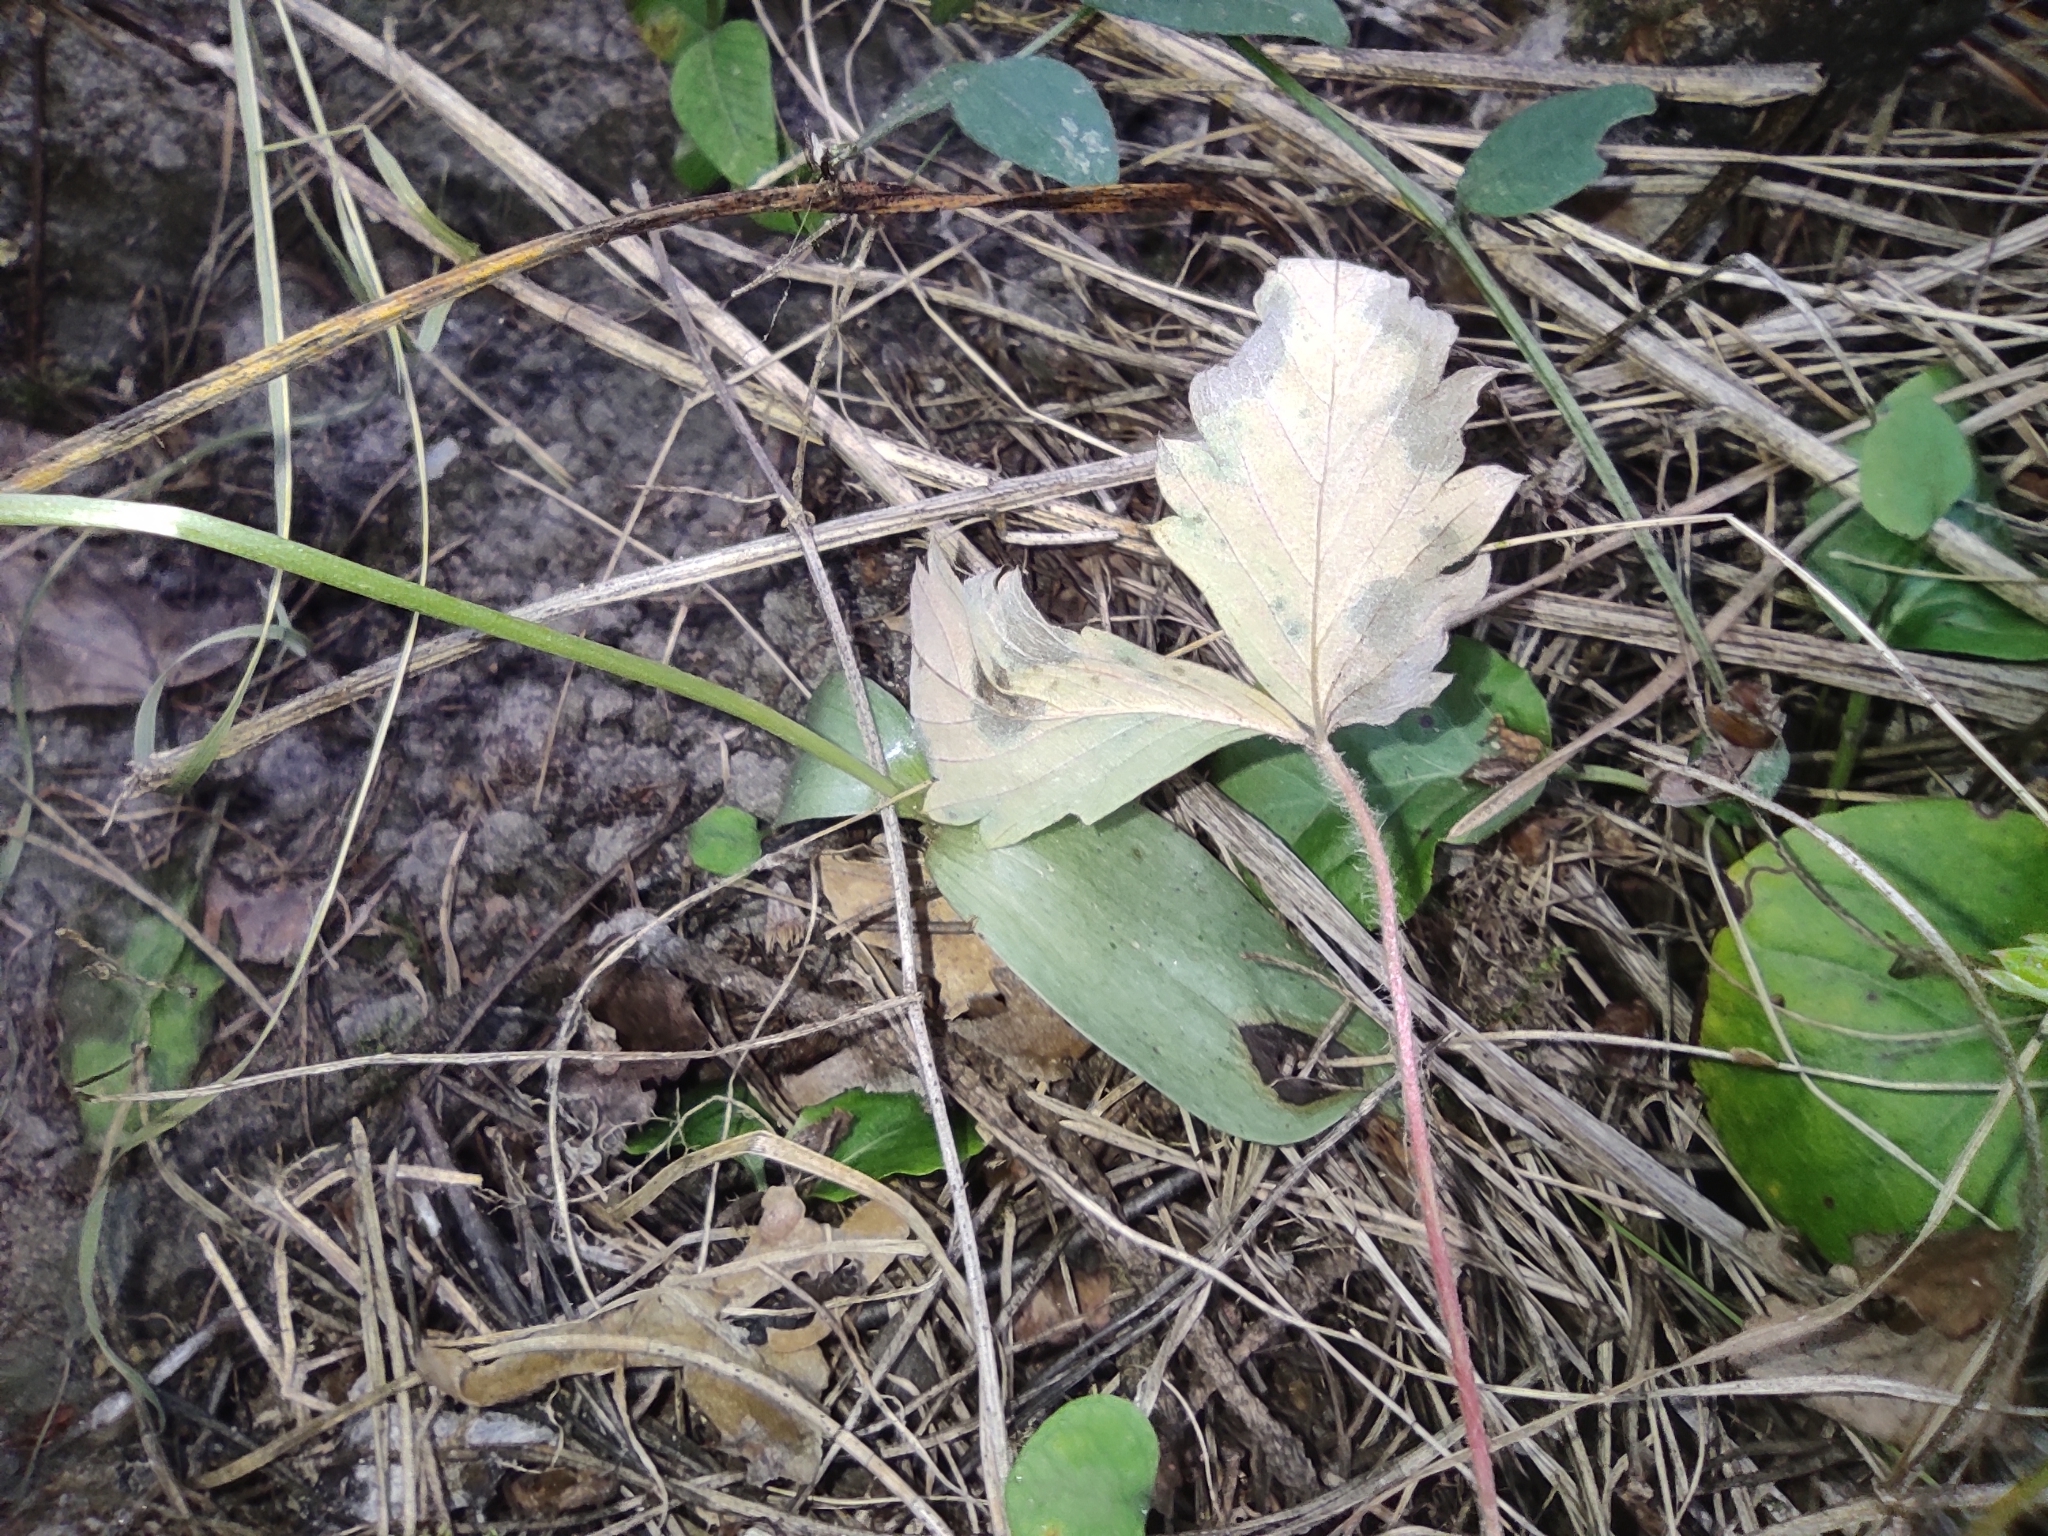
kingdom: Plantae
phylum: Tracheophyta
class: Liliopsida
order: Asparagales
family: Orchidaceae
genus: Hemipilia
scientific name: Hemipilia cucullata
